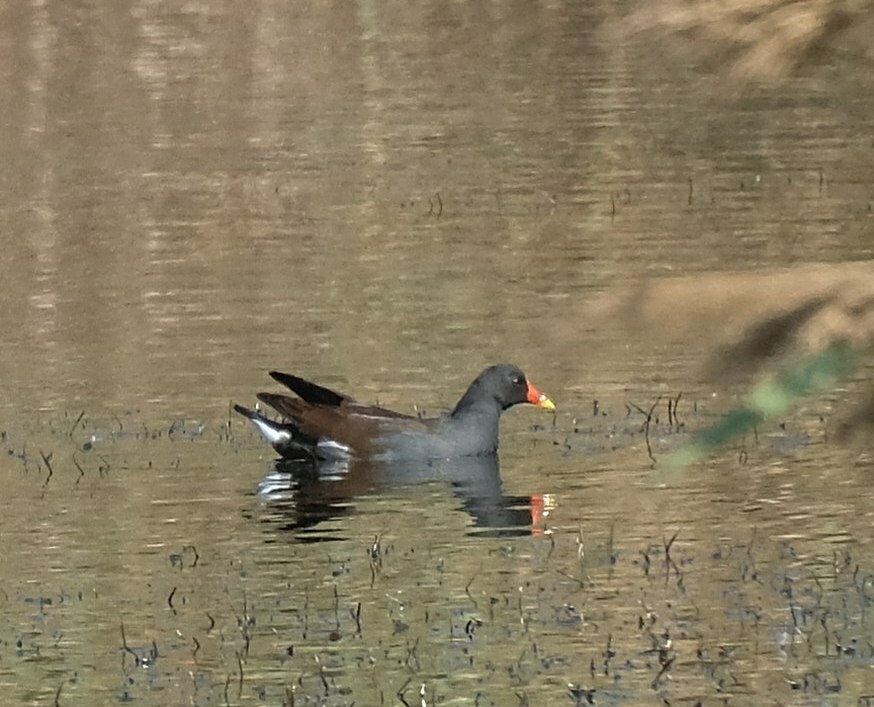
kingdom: Animalia
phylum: Chordata
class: Aves
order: Gruiformes
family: Rallidae
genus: Gallinula
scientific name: Gallinula chloropus
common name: Common moorhen
